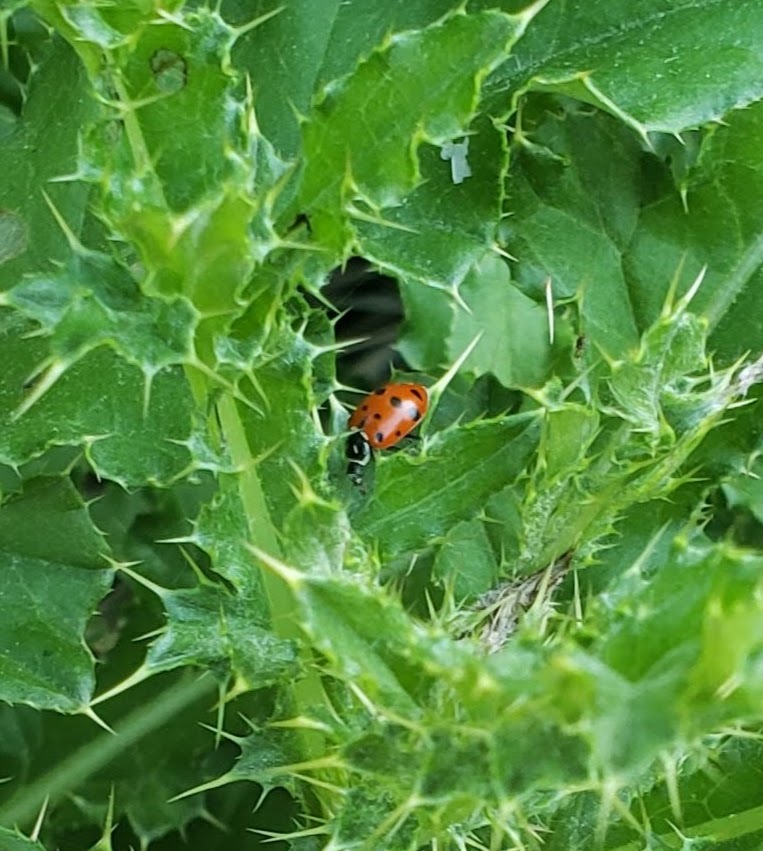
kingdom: Animalia
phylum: Arthropoda
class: Insecta
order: Coleoptera
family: Coccinellidae
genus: Hippodamia
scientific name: Hippodamia convergens
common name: Convergent lady beetle
